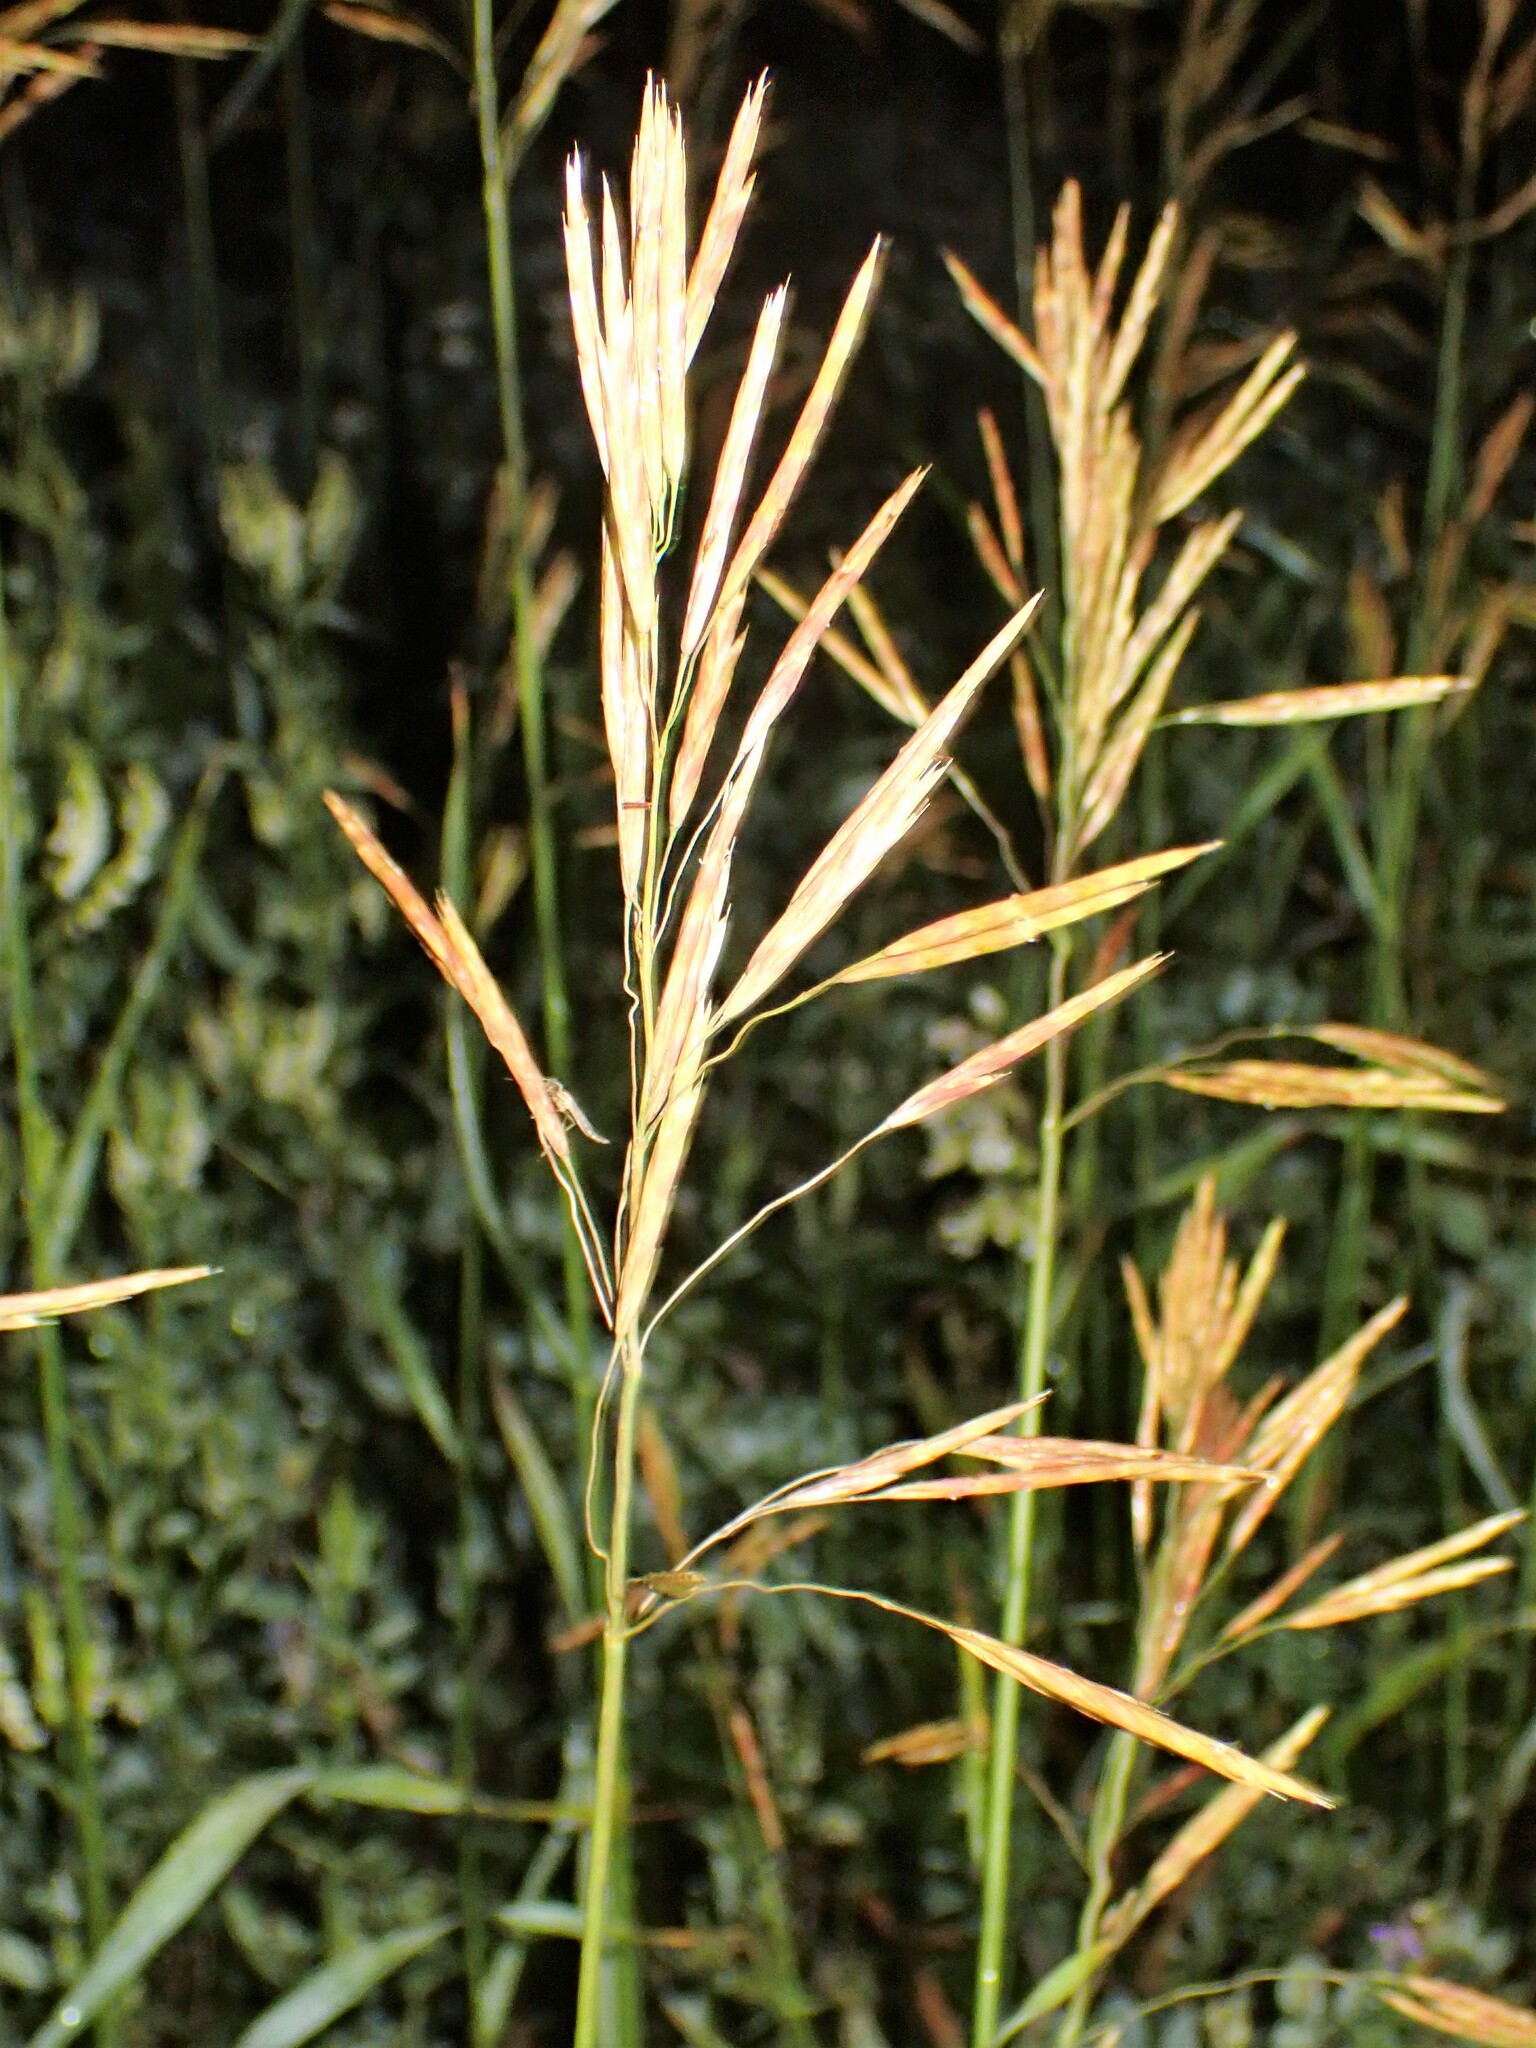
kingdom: Plantae
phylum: Tracheophyta
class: Liliopsida
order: Poales
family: Poaceae
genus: Bromus
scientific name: Bromus inermis
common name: Smooth brome
